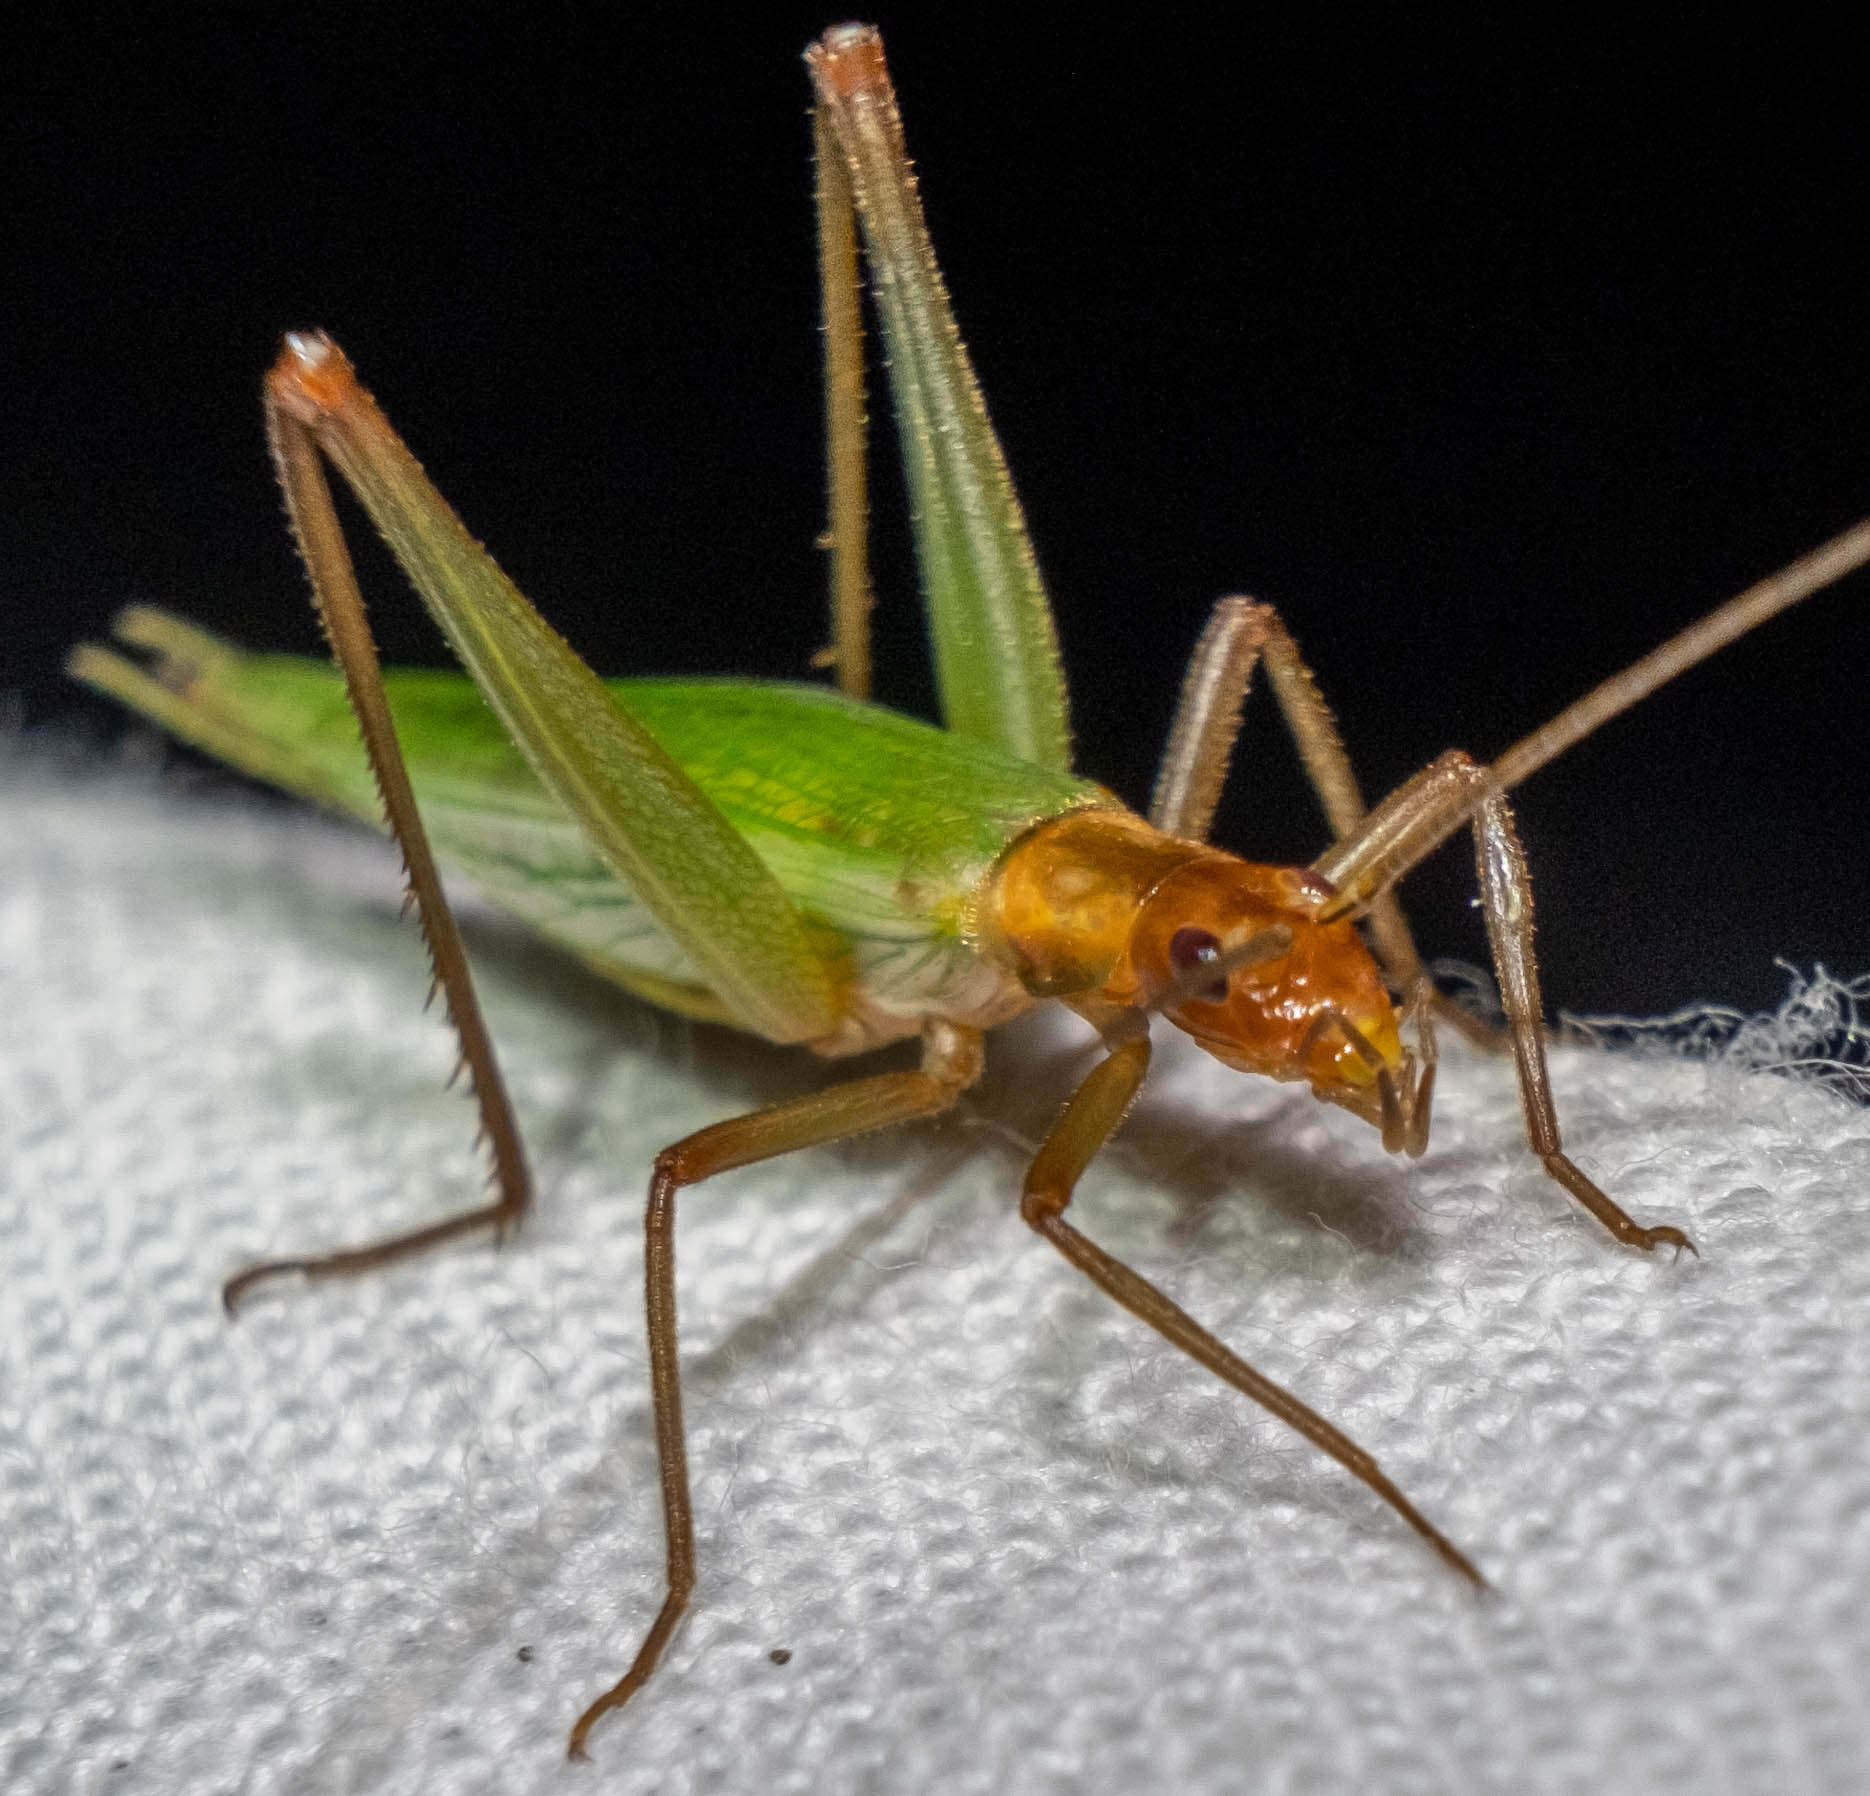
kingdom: Animalia
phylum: Arthropoda
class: Insecta
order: Orthoptera
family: Gryllidae
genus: Oecanthus
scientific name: Oecanthus pini
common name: Pine tree cricket
